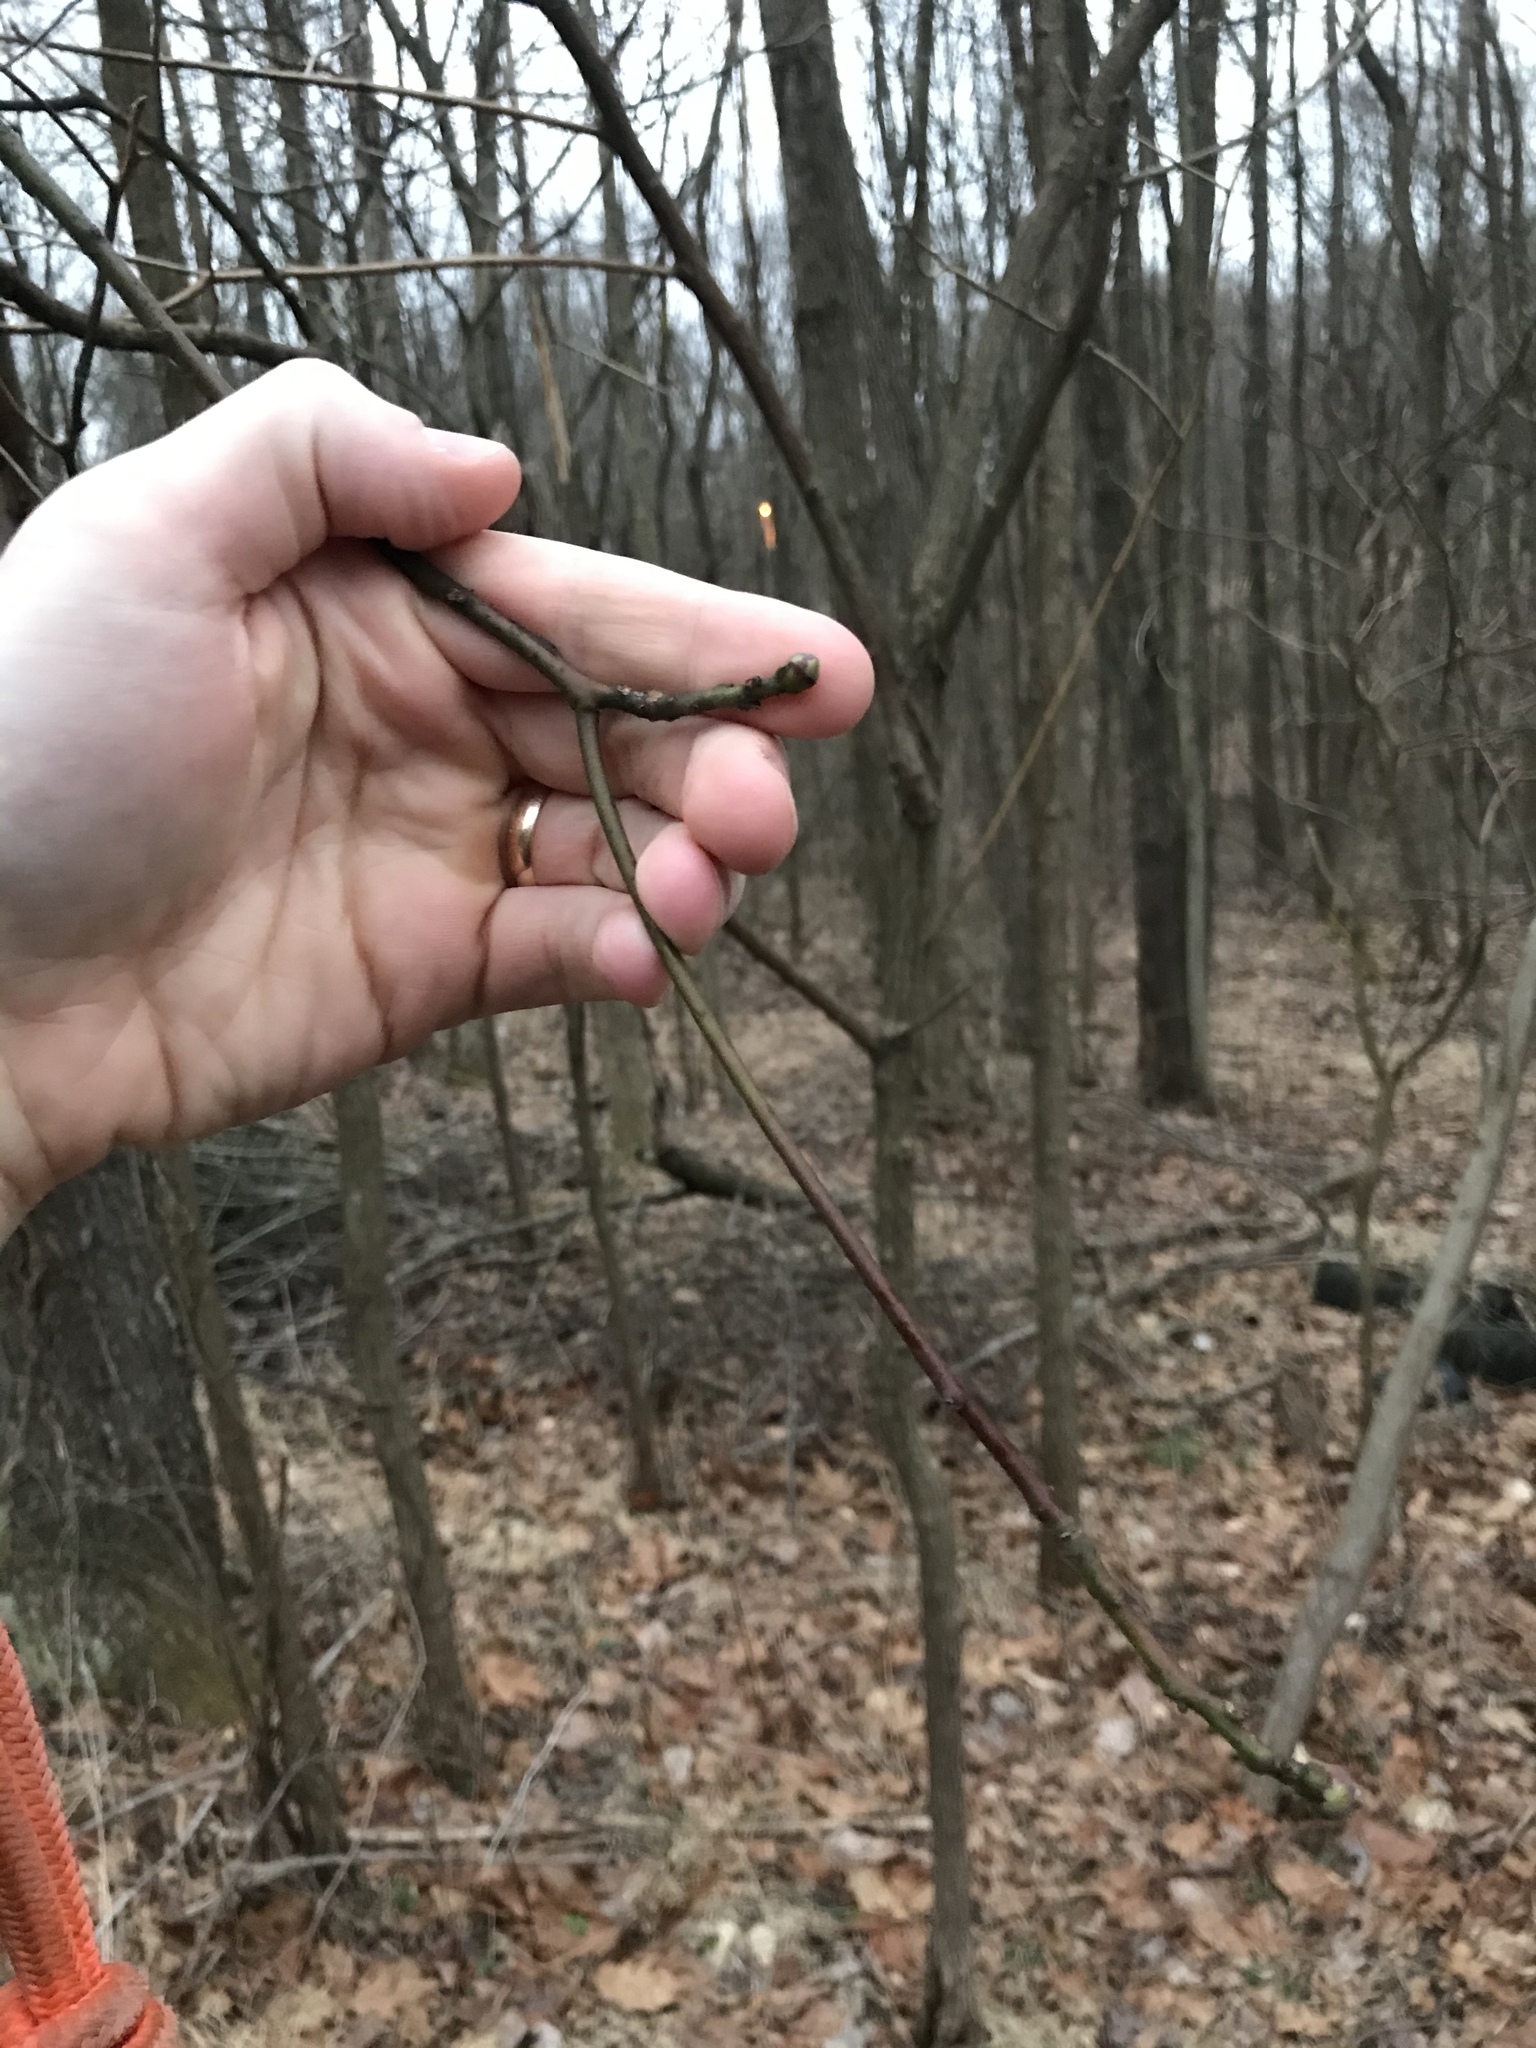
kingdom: Plantae
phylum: Tracheophyta
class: Magnoliopsida
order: Laurales
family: Lauraceae
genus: Sassafras
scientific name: Sassafras albidum
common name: Sassafras
